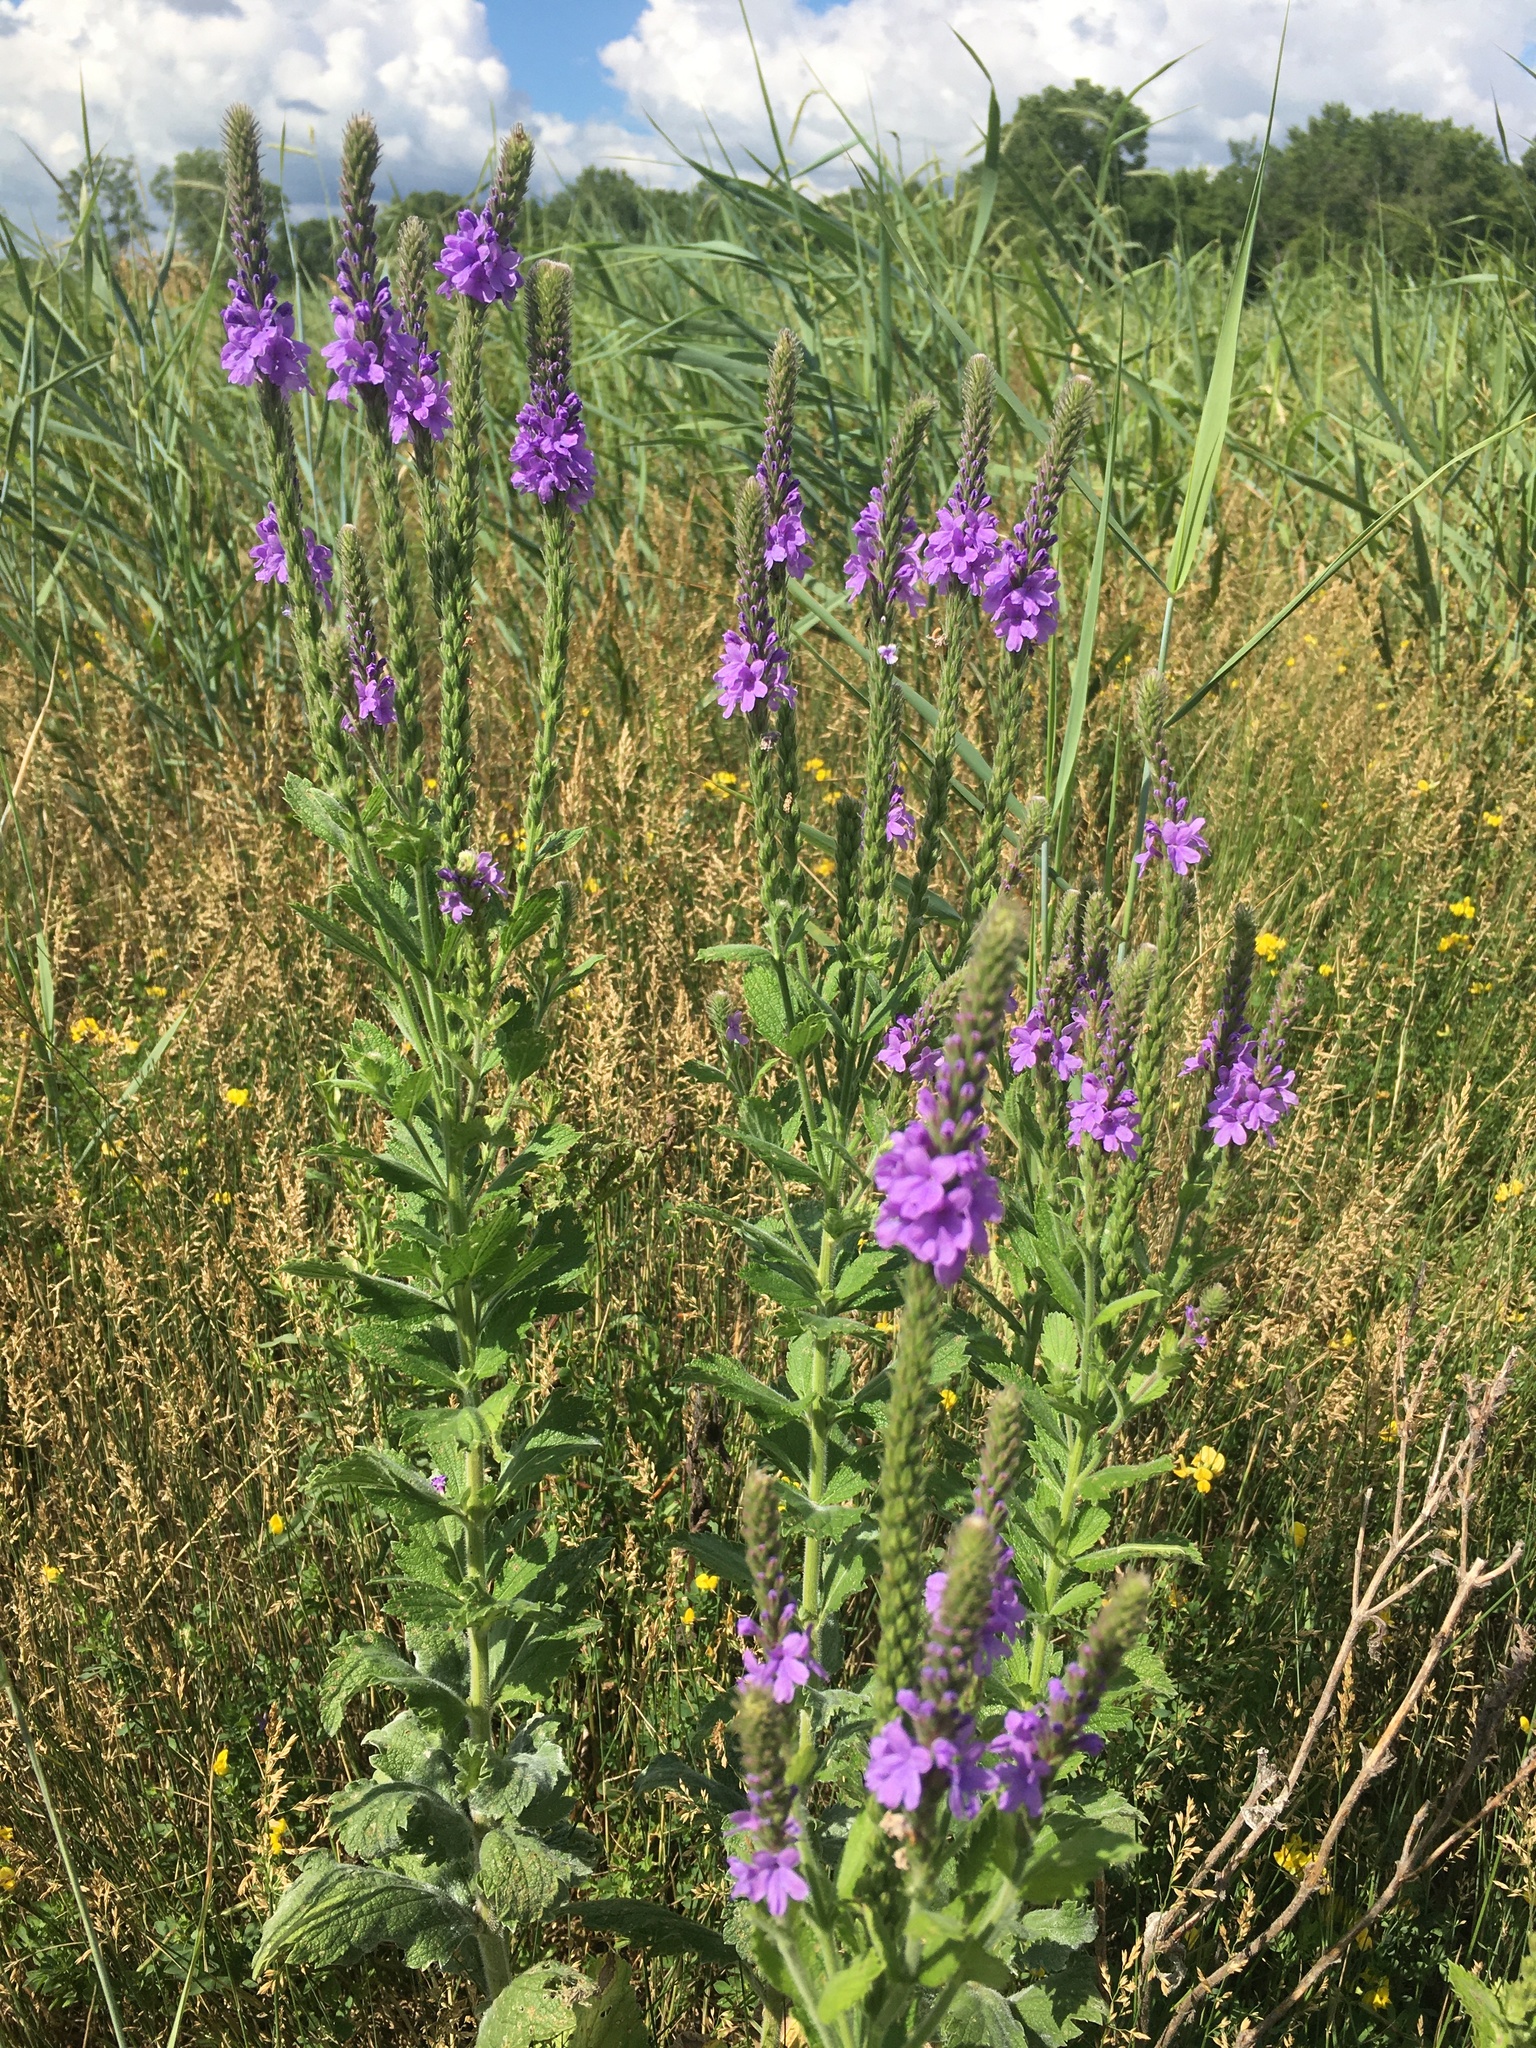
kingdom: Plantae
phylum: Tracheophyta
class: Magnoliopsida
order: Lamiales
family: Verbenaceae
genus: Verbena
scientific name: Verbena stricta
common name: Hoary vervain
